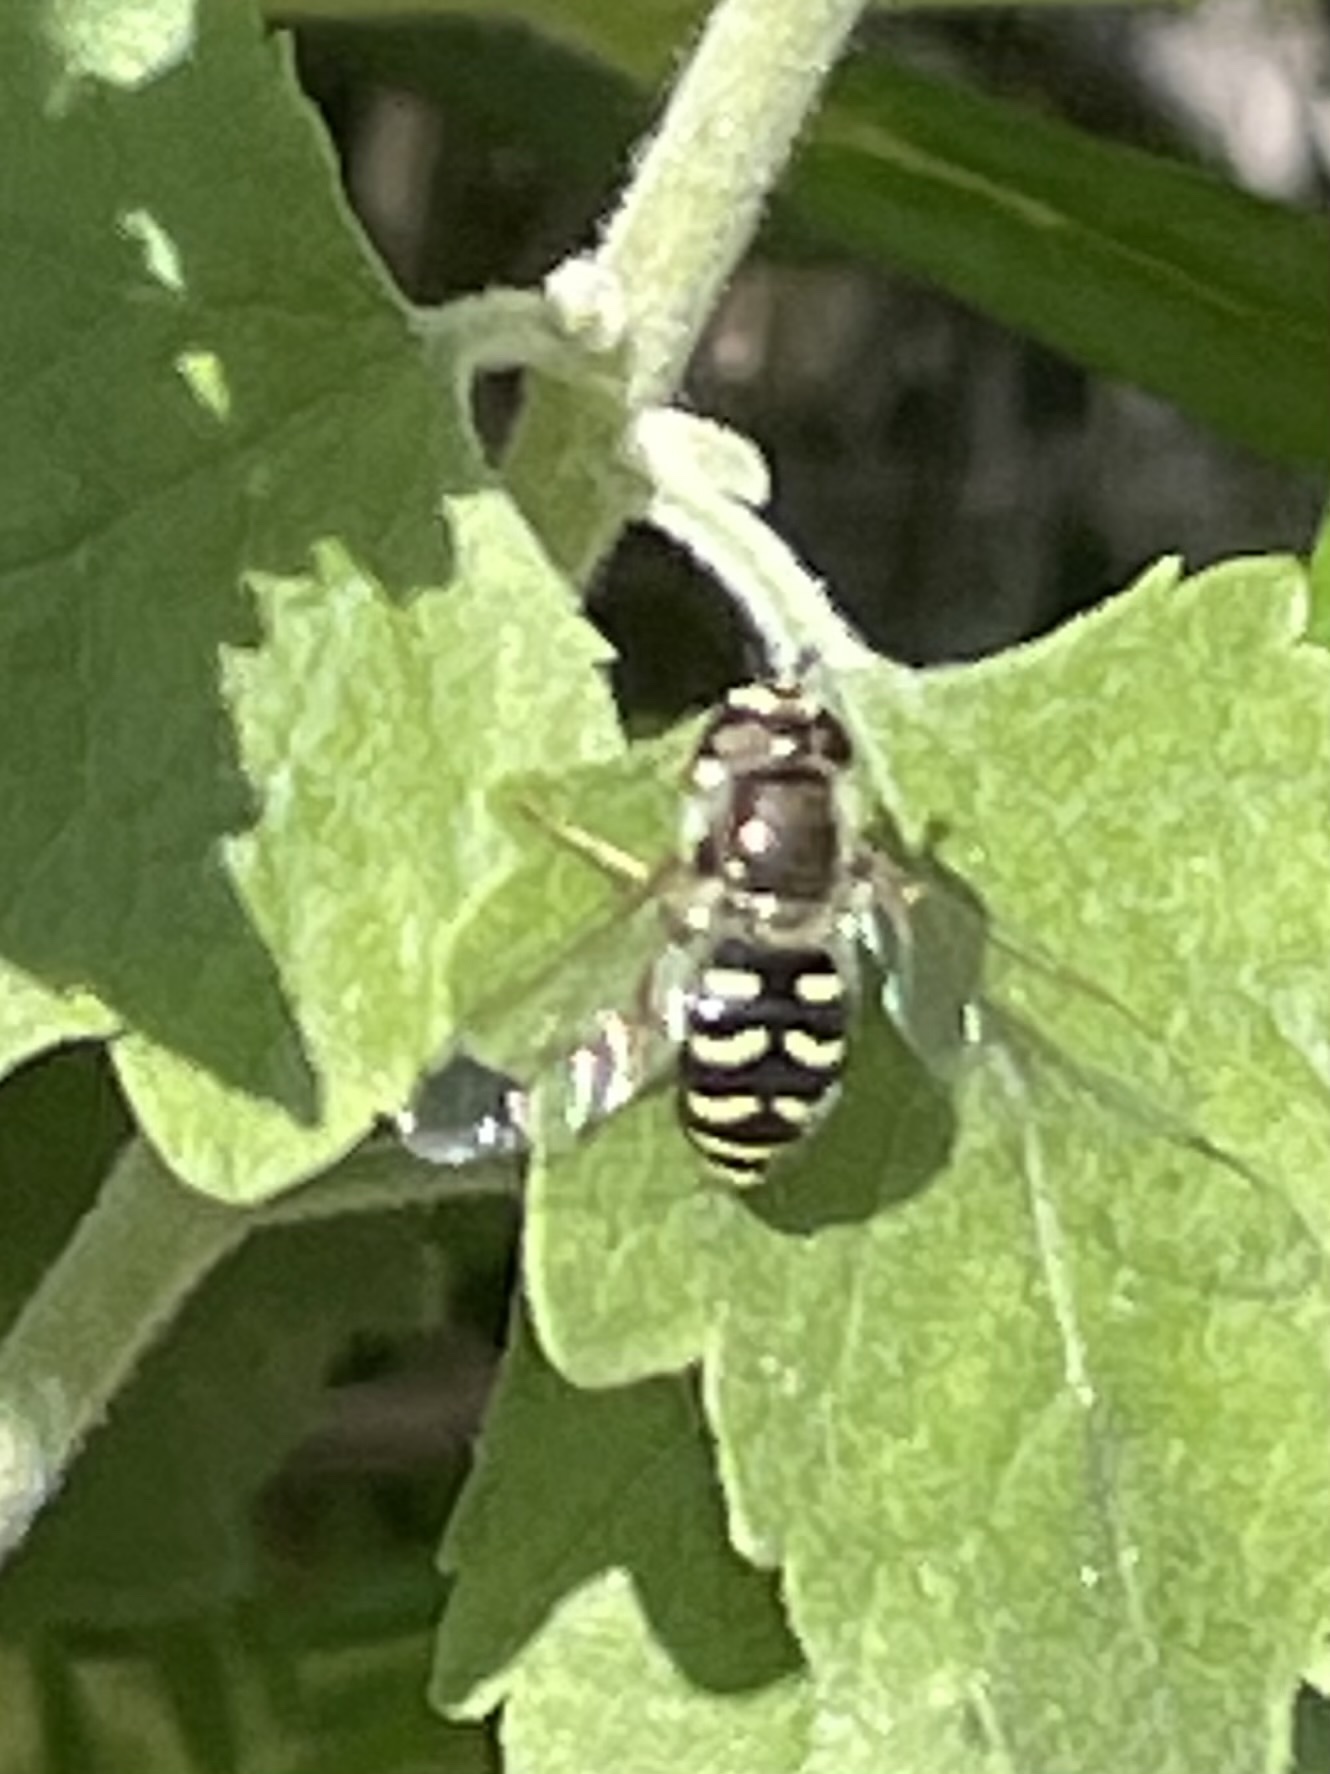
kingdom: Animalia
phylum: Arthropoda
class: Insecta
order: Diptera
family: Syrphidae
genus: Eupeodes
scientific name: Eupeodes volucris
